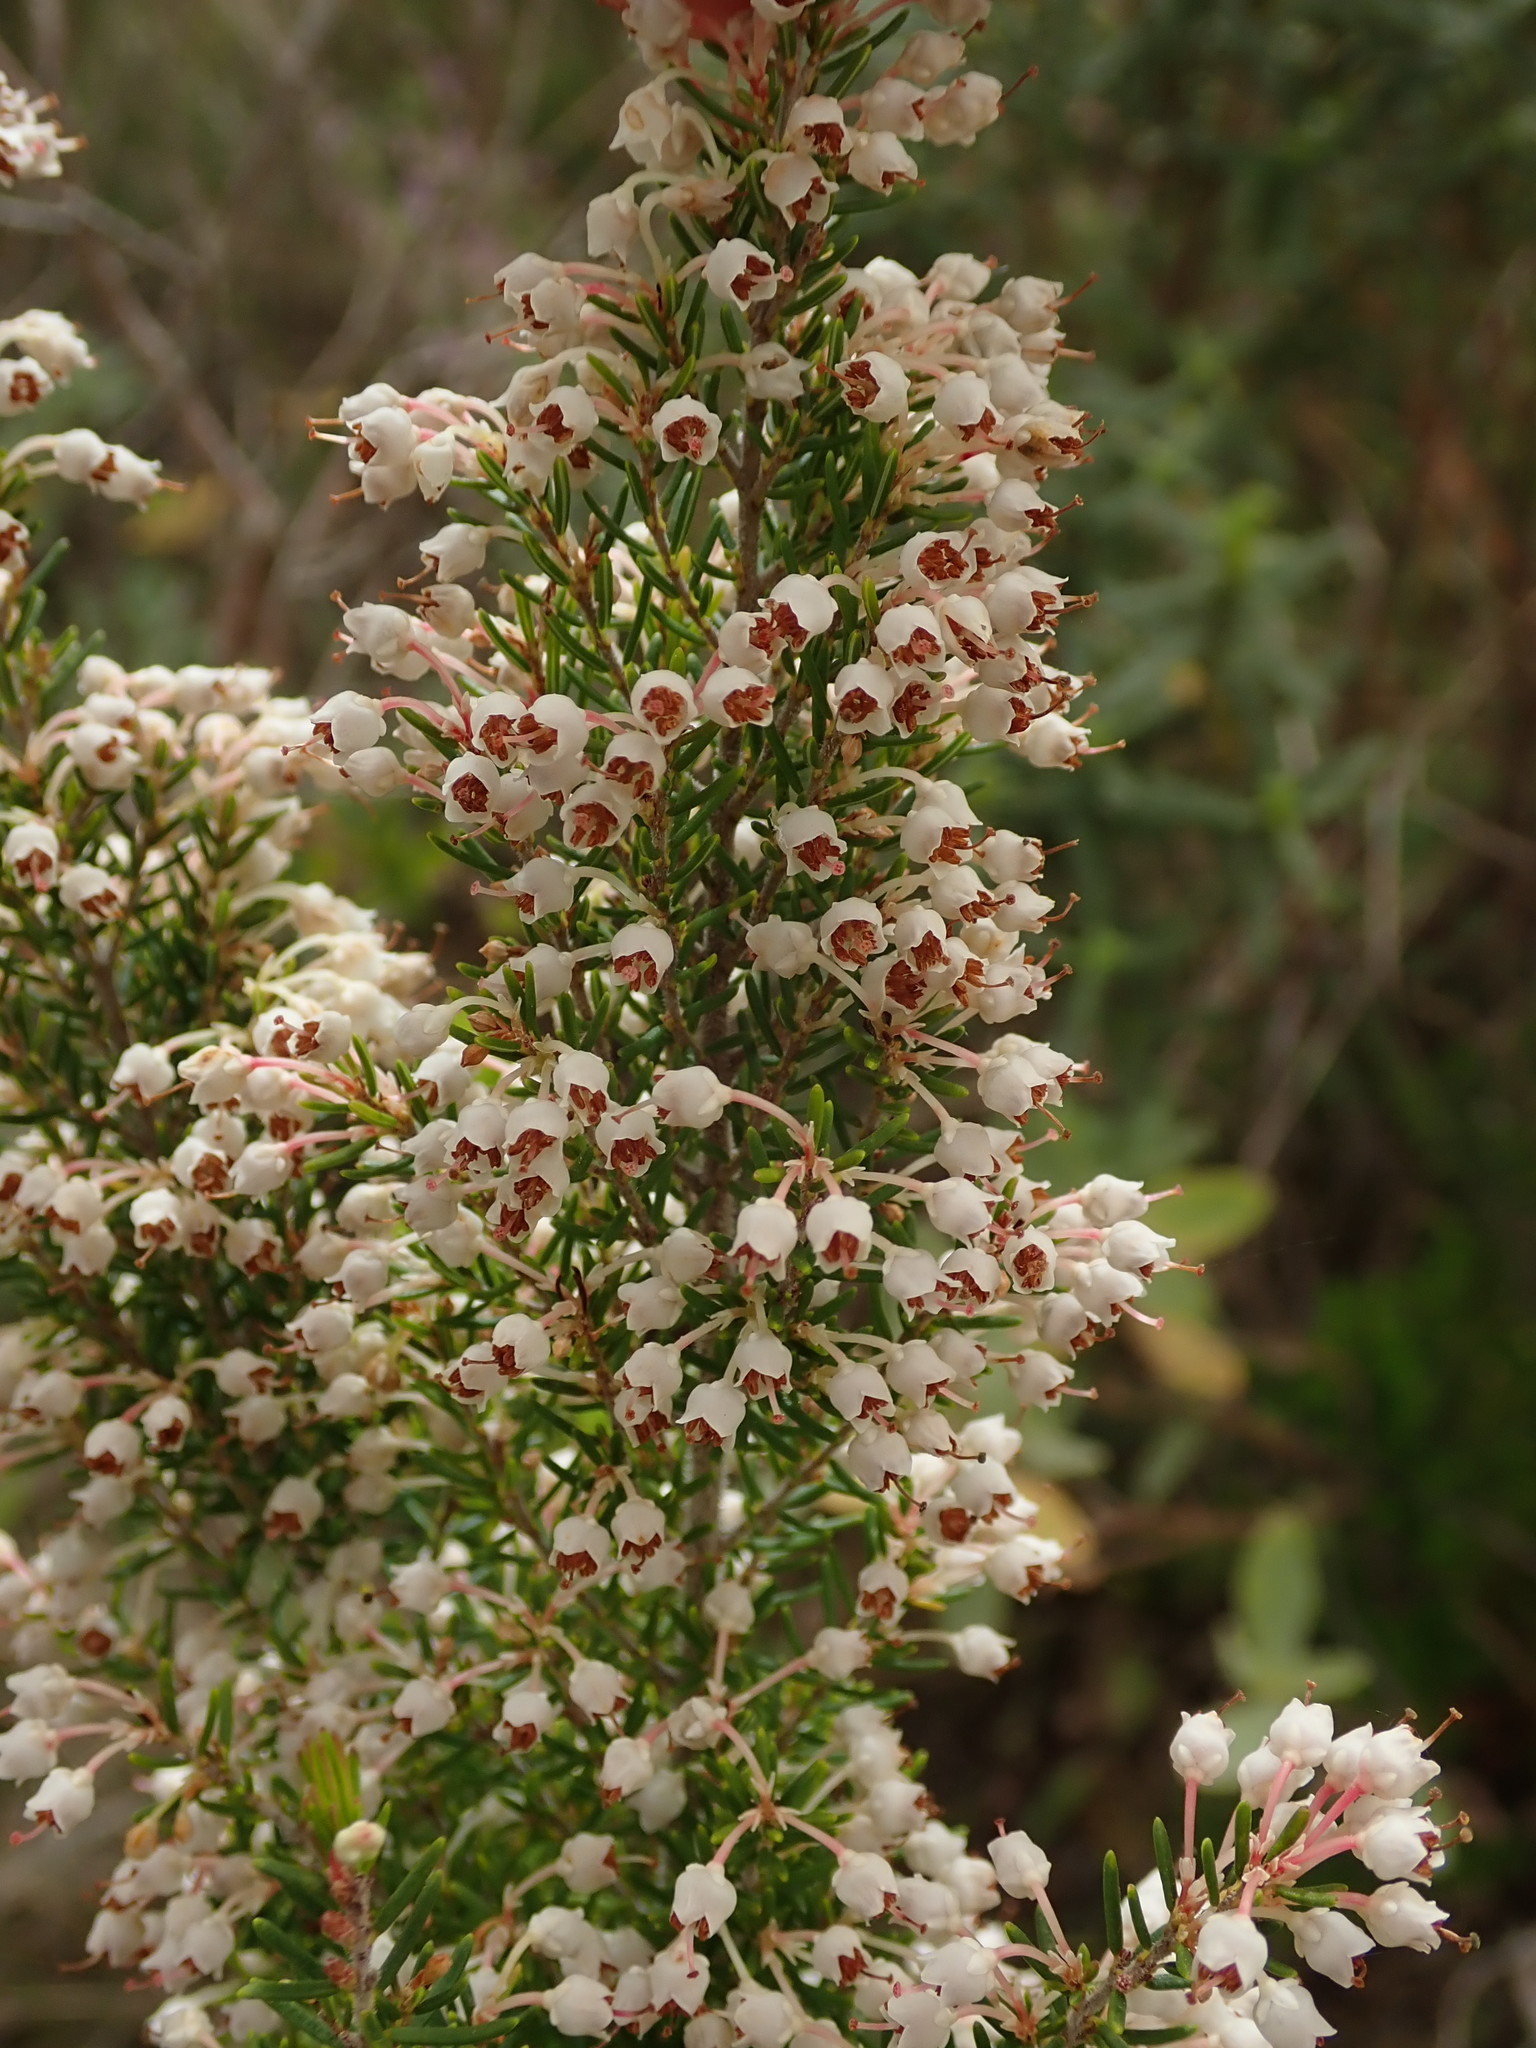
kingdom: Plantae
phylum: Tracheophyta
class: Magnoliopsida
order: Ericales
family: Ericaceae
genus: Erica
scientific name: Erica arborea
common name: Tree heath
